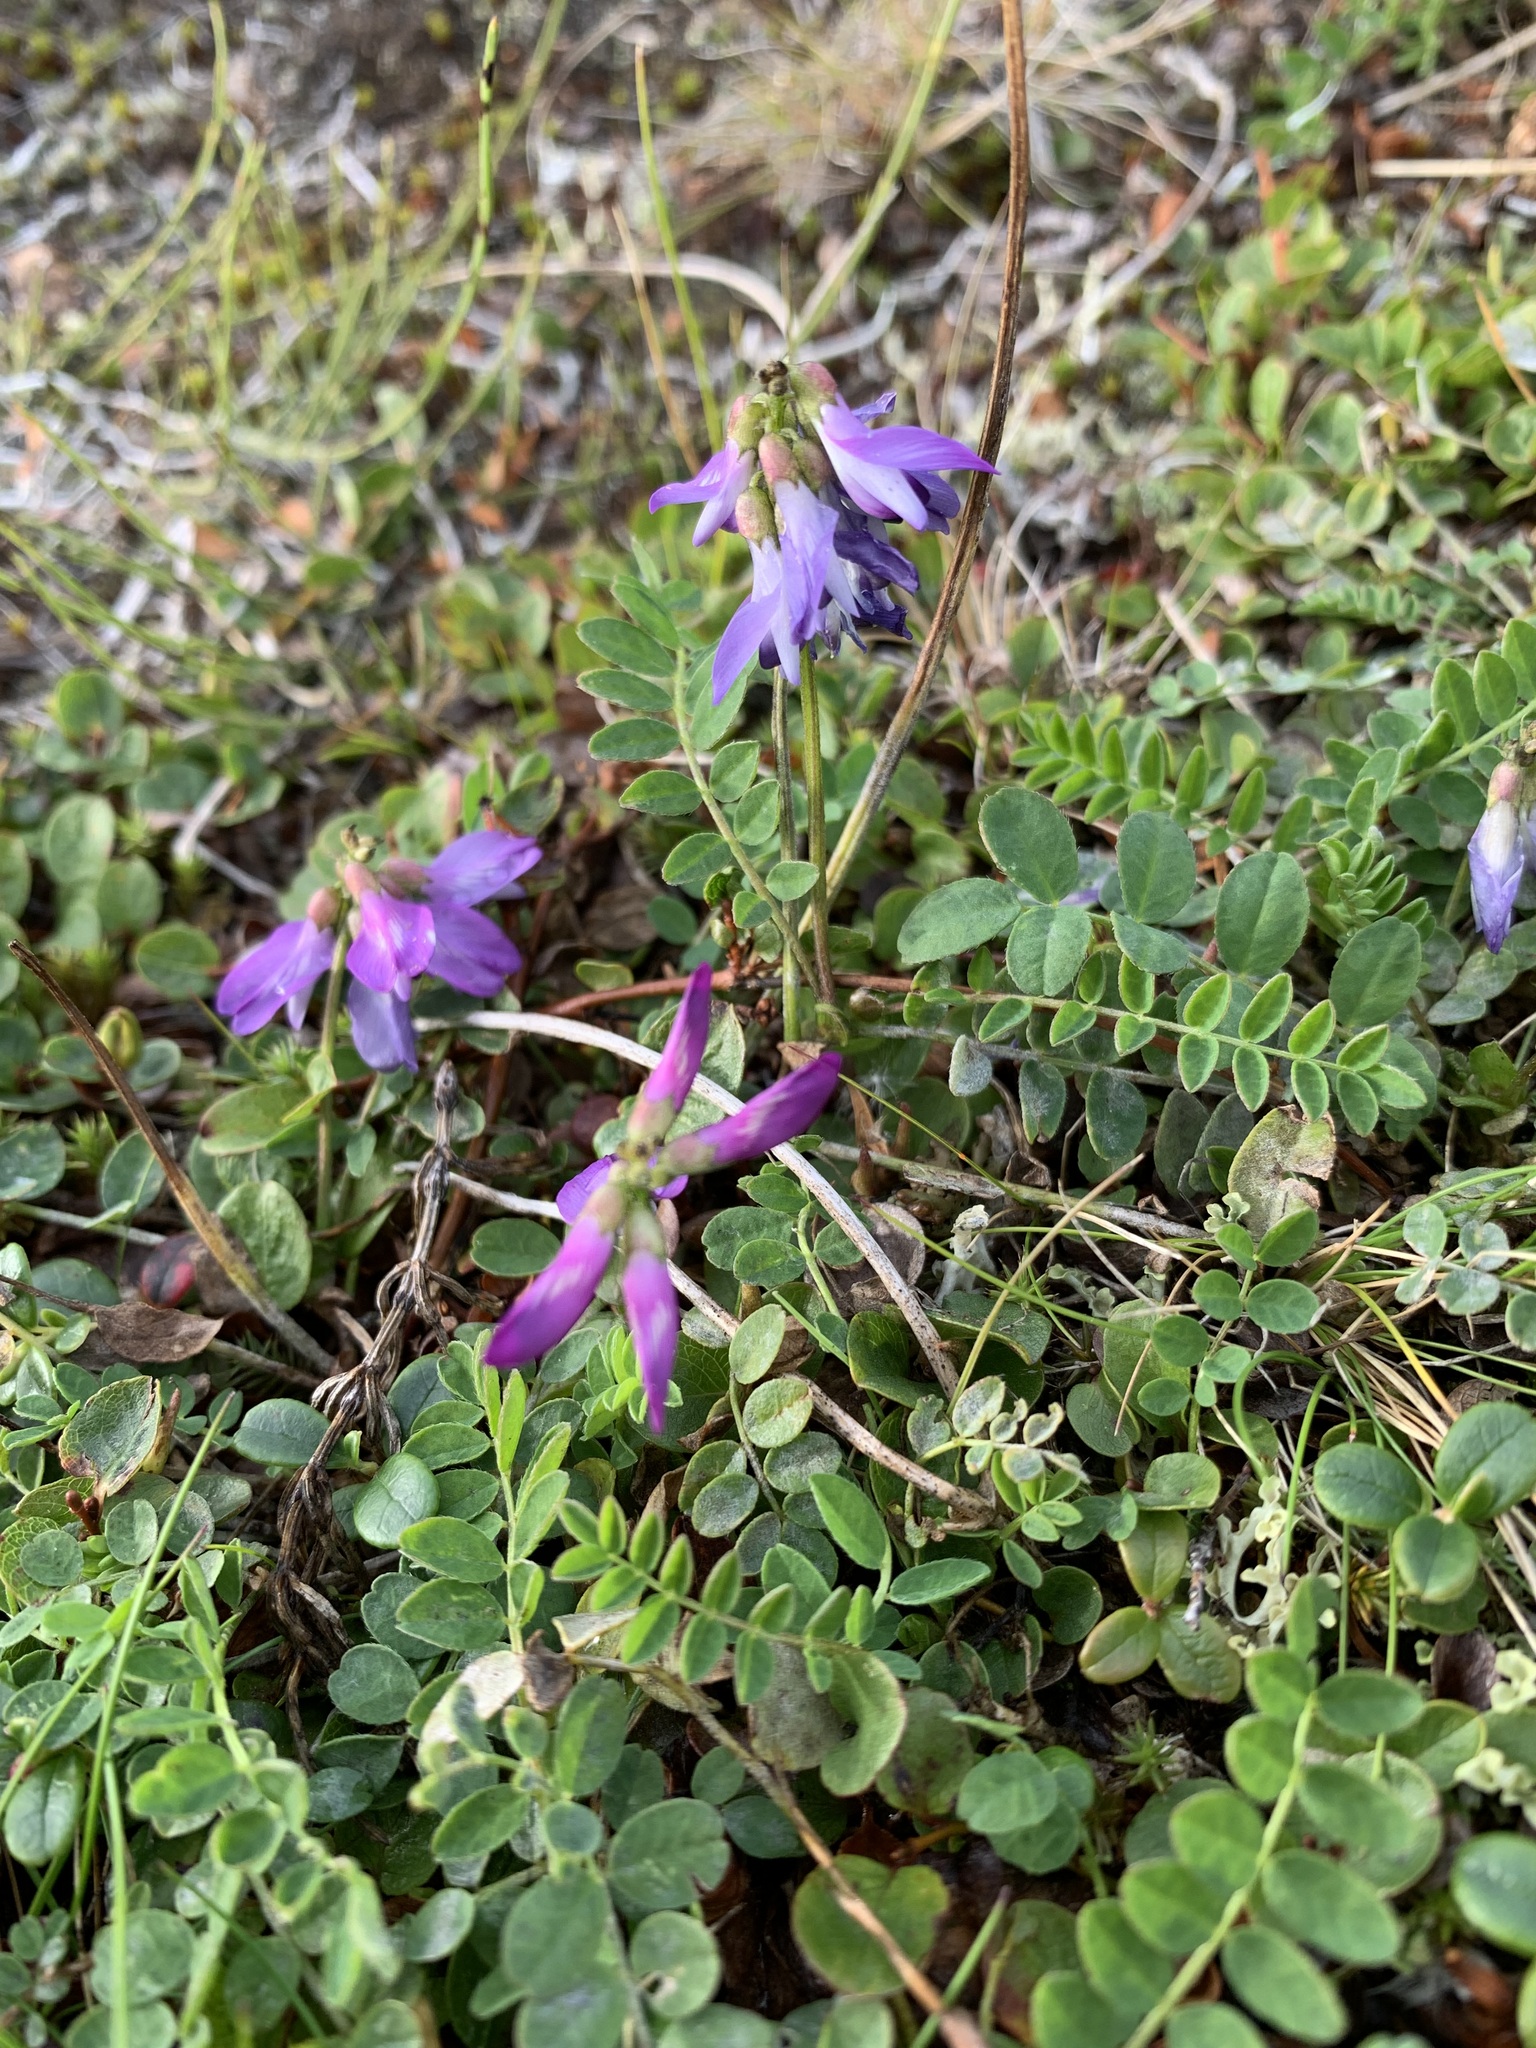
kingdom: Plantae
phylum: Tracheophyta
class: Magnoliopsida
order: Fabales
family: Fabaceae
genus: Astragalus
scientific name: Astragalus alpinus
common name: Alpine milk-vetch
